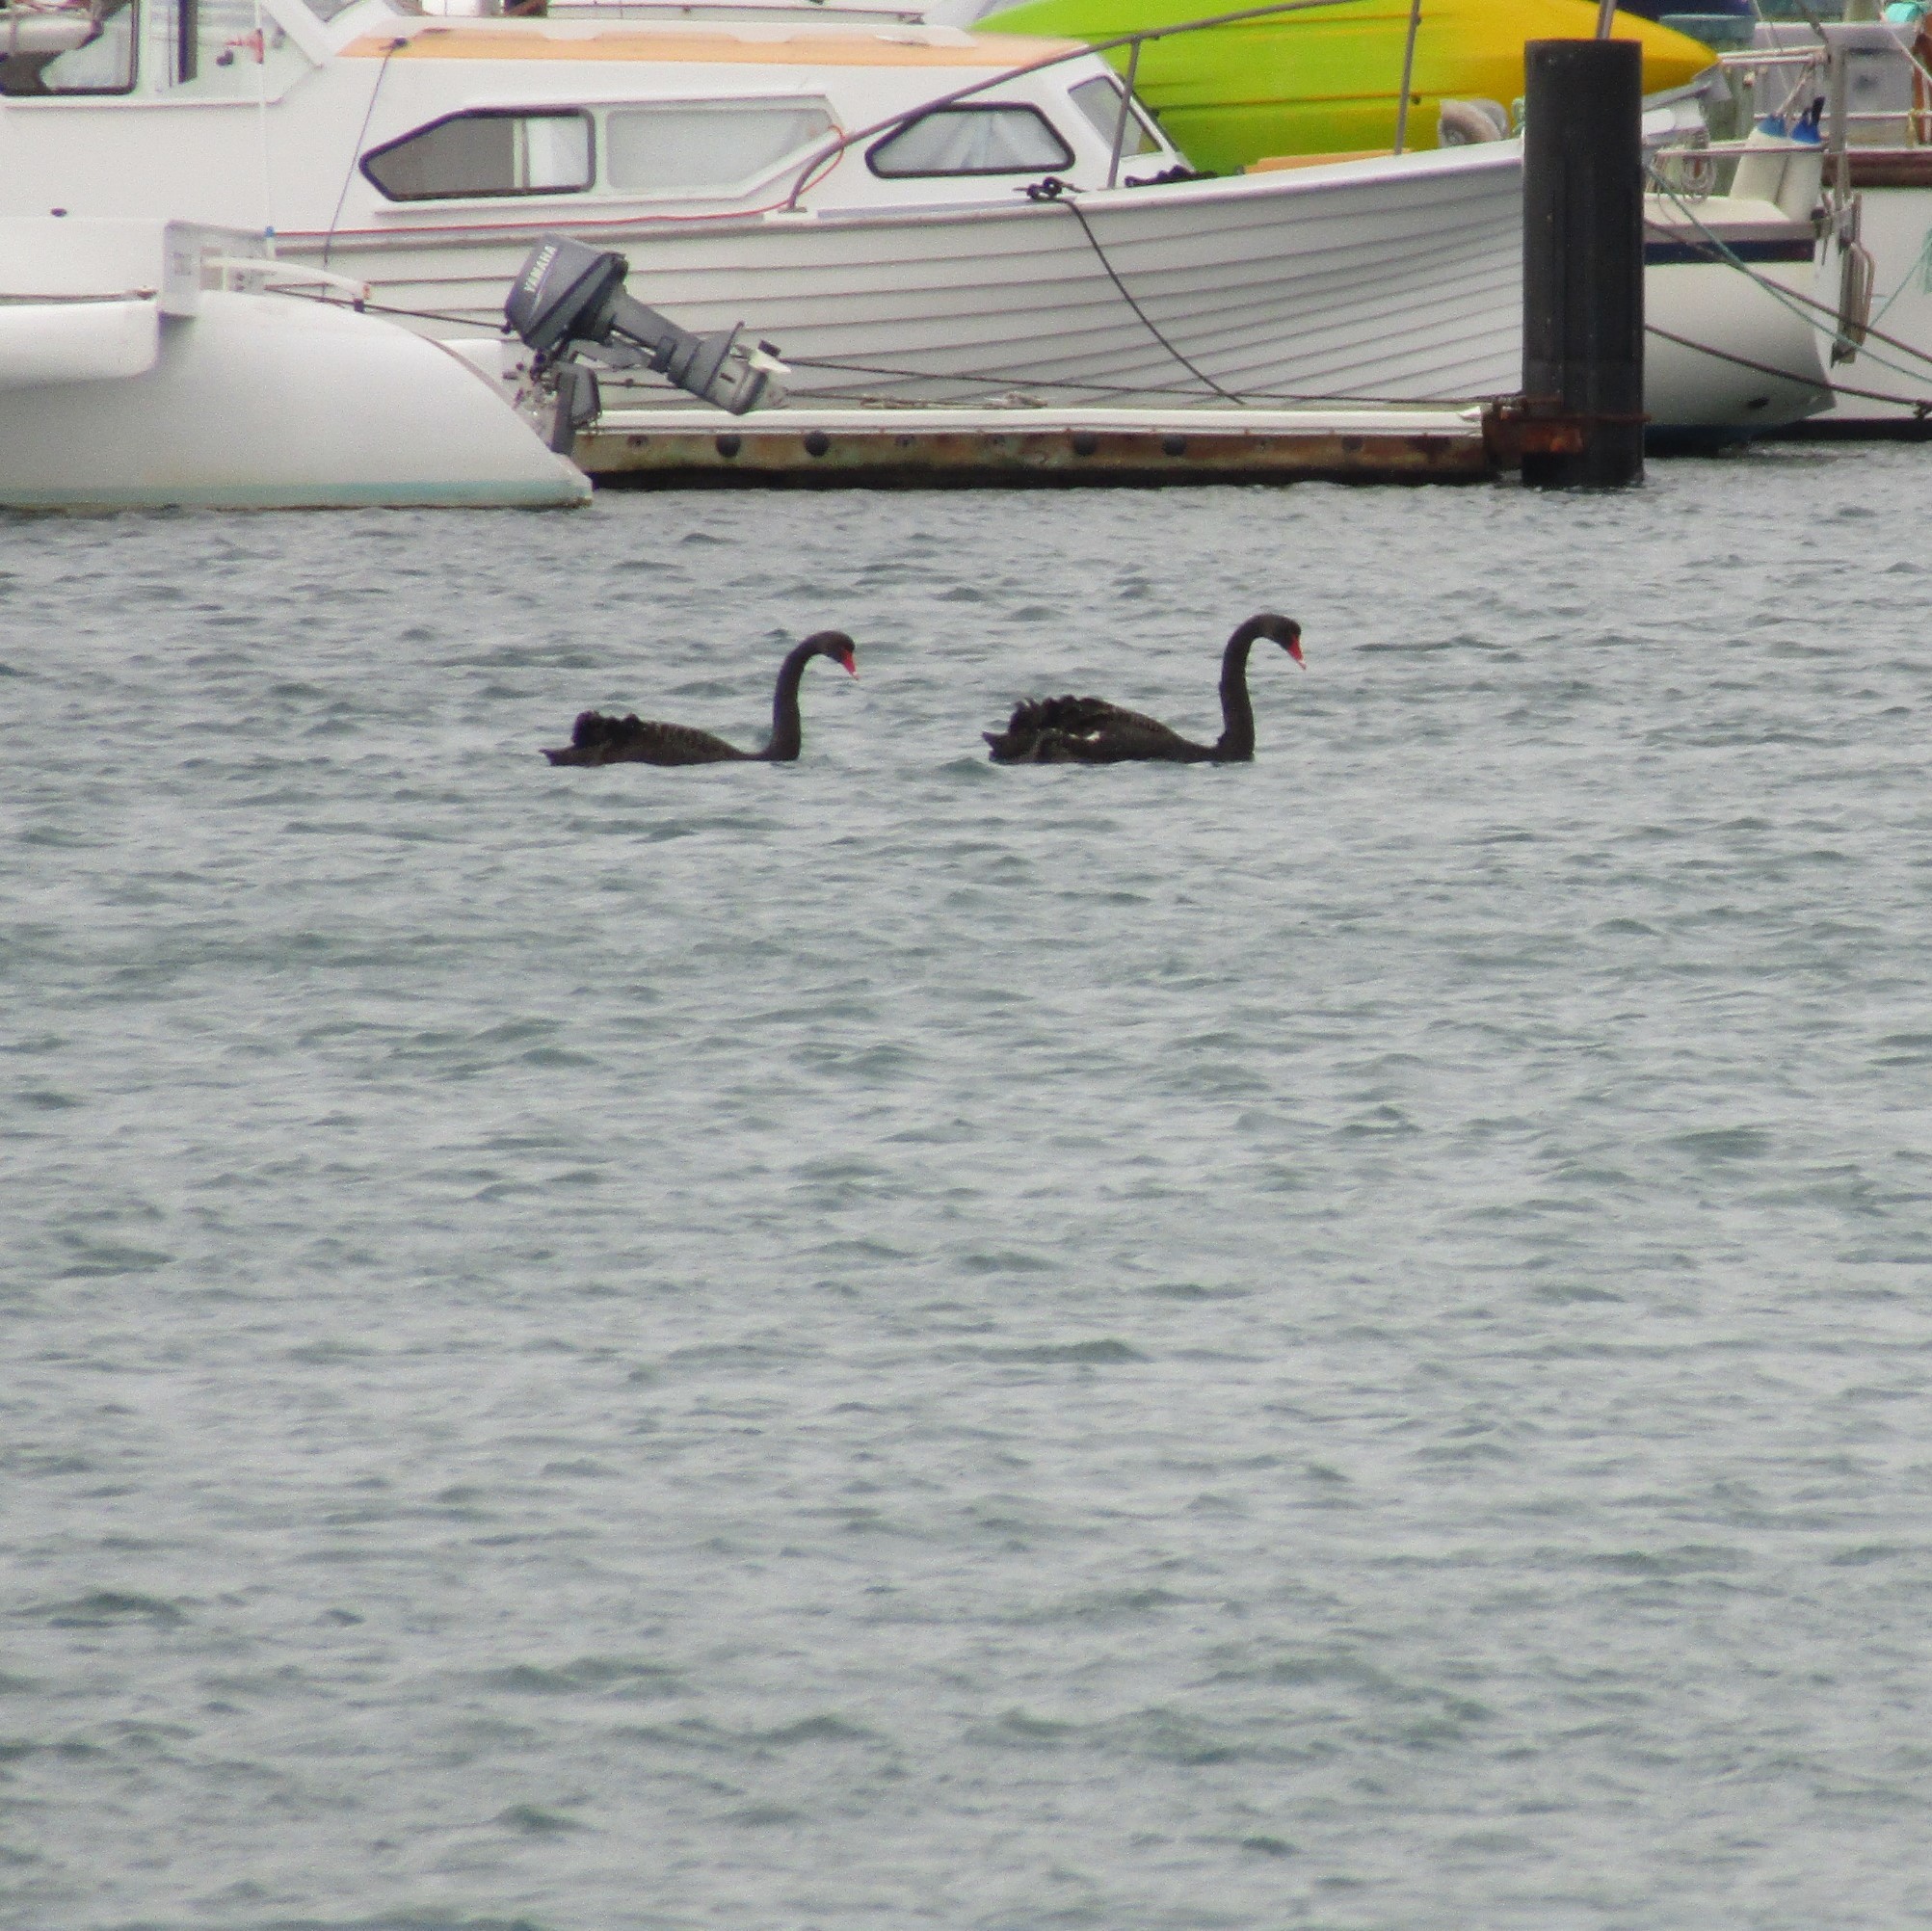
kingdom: Animalia
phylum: Chordata
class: Aves
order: Anseriformes
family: Anatidae
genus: Cygnus
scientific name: Cygnus atratus
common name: Black swan
